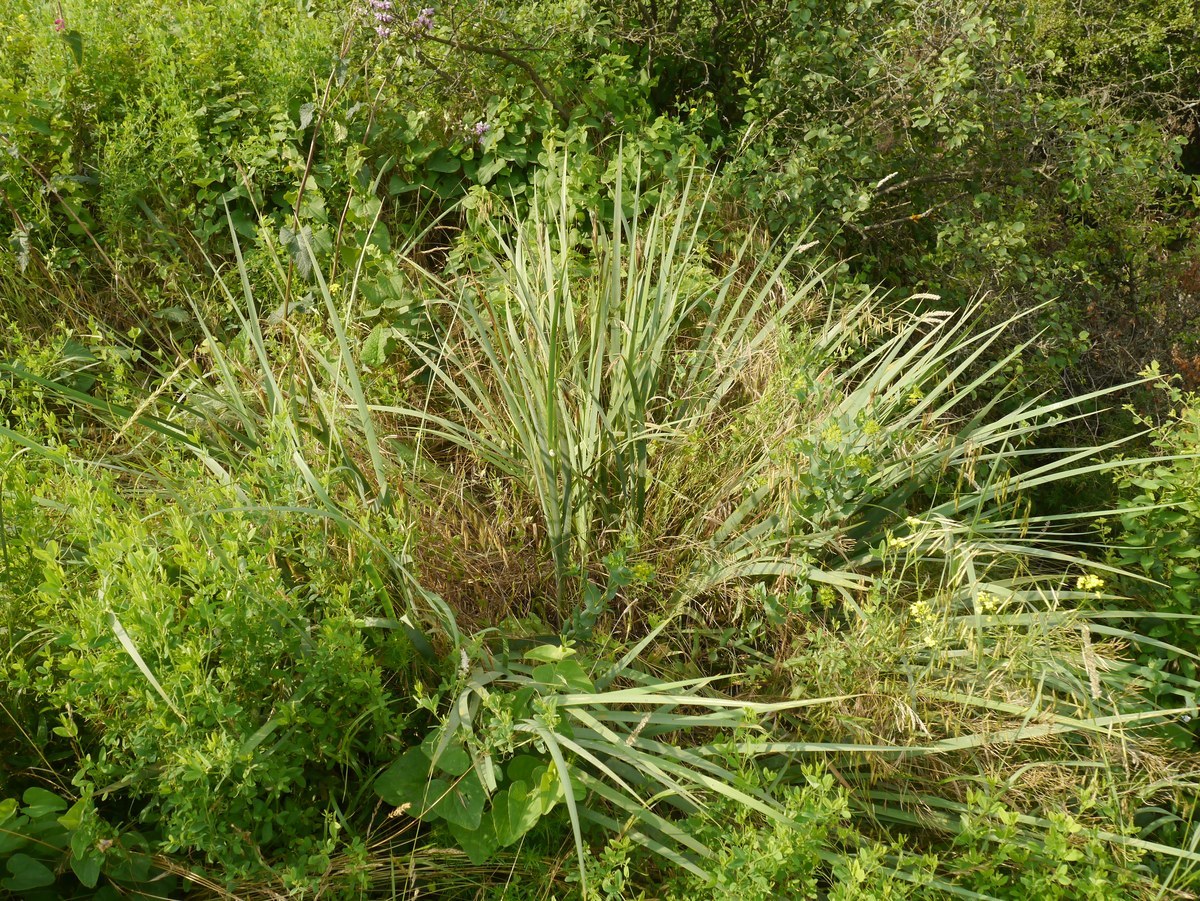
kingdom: Plantae
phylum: Tracheophyta
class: Liliopsida
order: Asparagales
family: Iridaceae
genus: Iris
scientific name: Iris halophila
